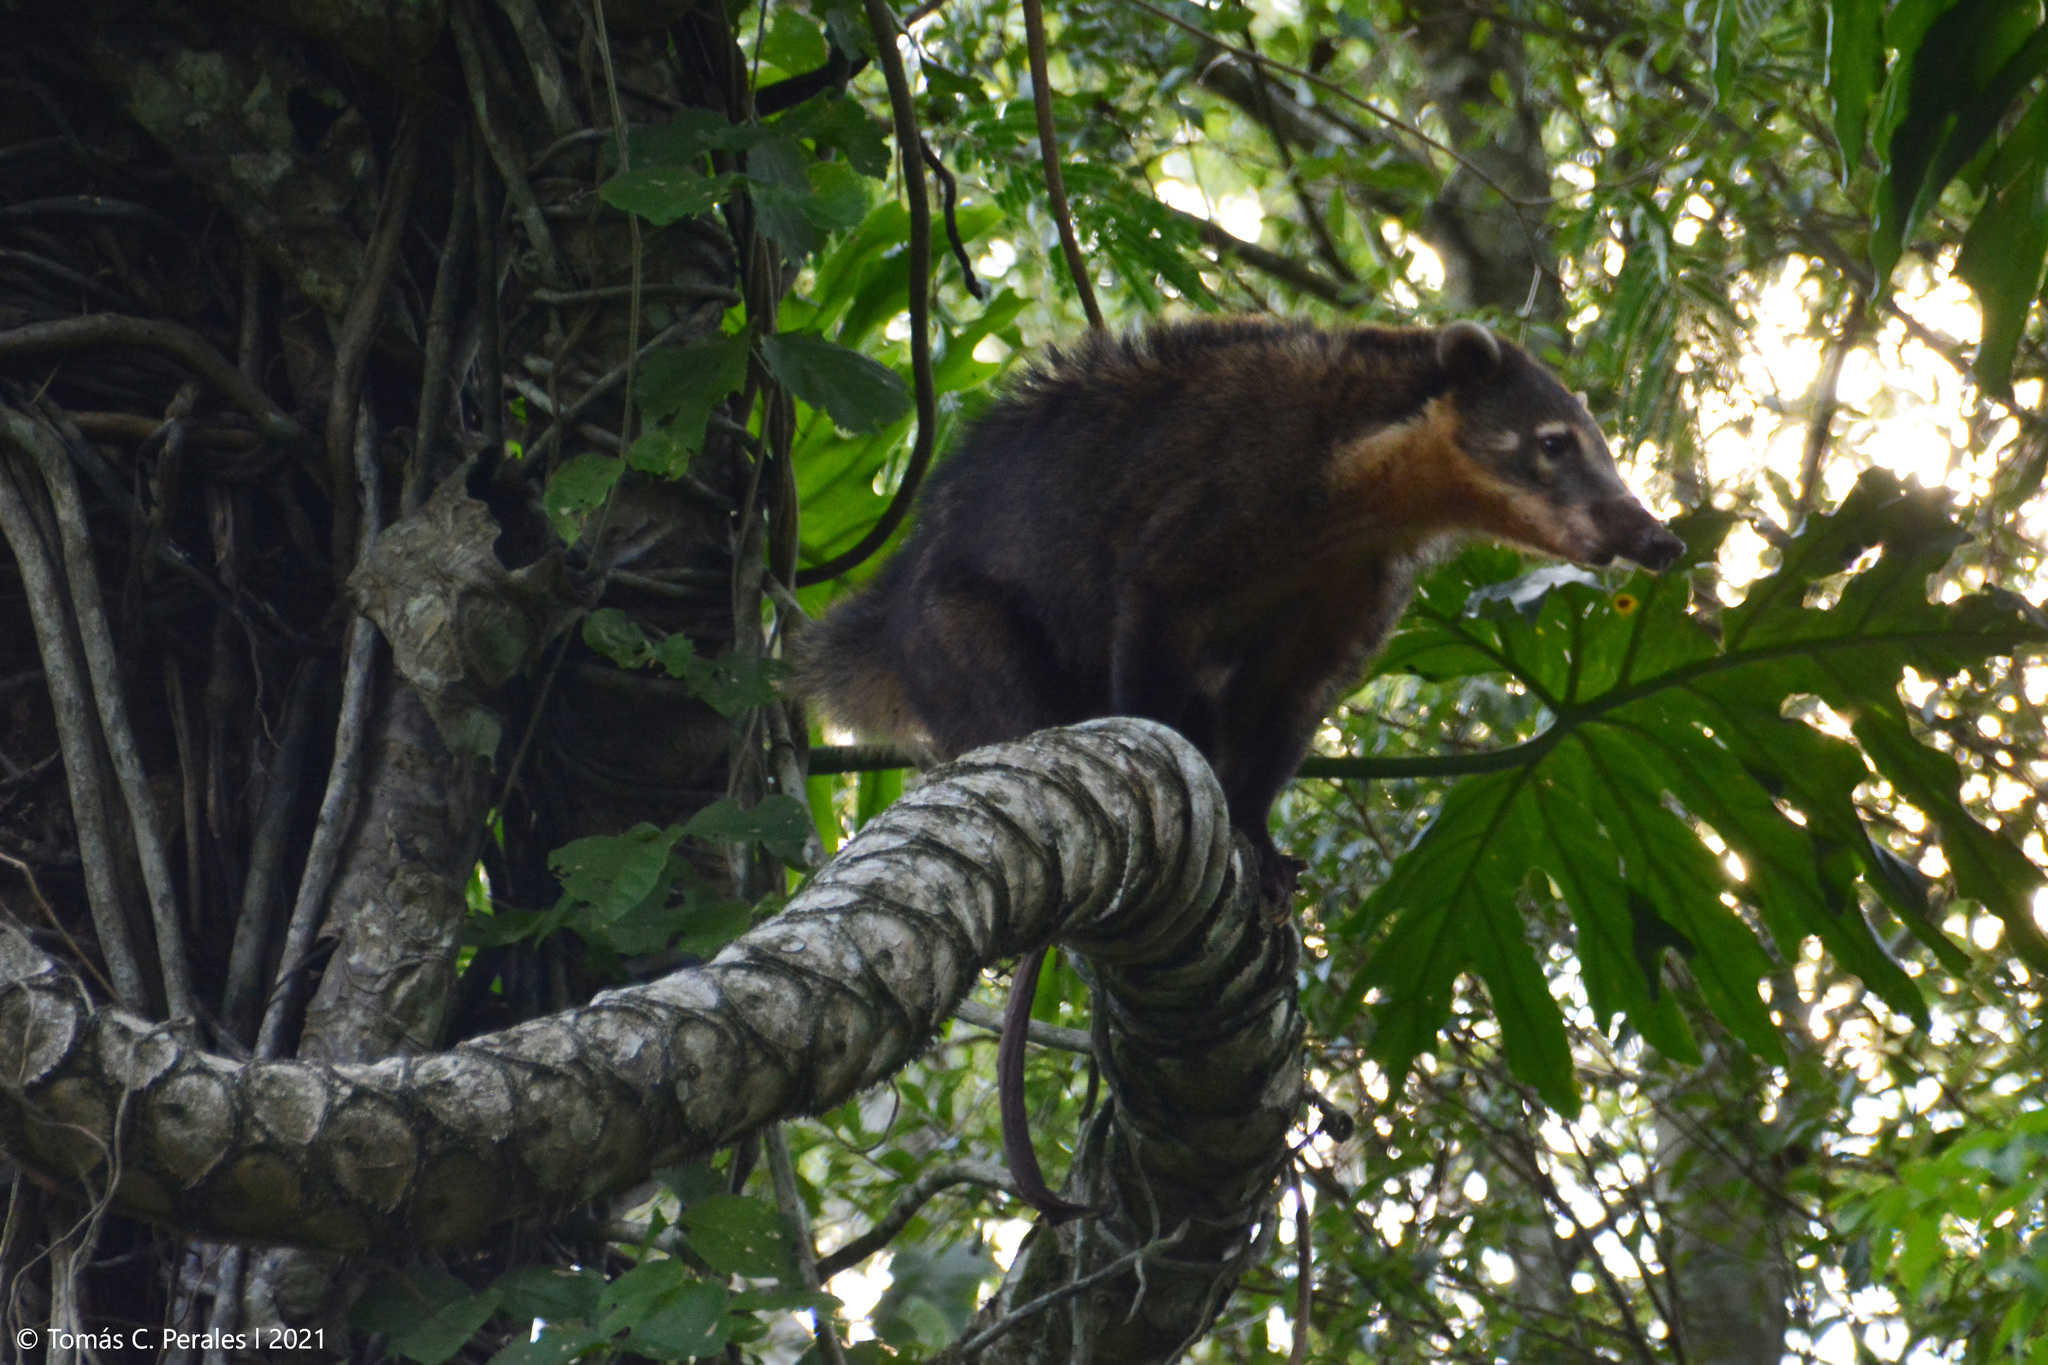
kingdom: Animalia
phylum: Chordata
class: Mammalia
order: Carnivora
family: Procyonidae
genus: Nasua
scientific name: Nasua nasua
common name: South american coati
